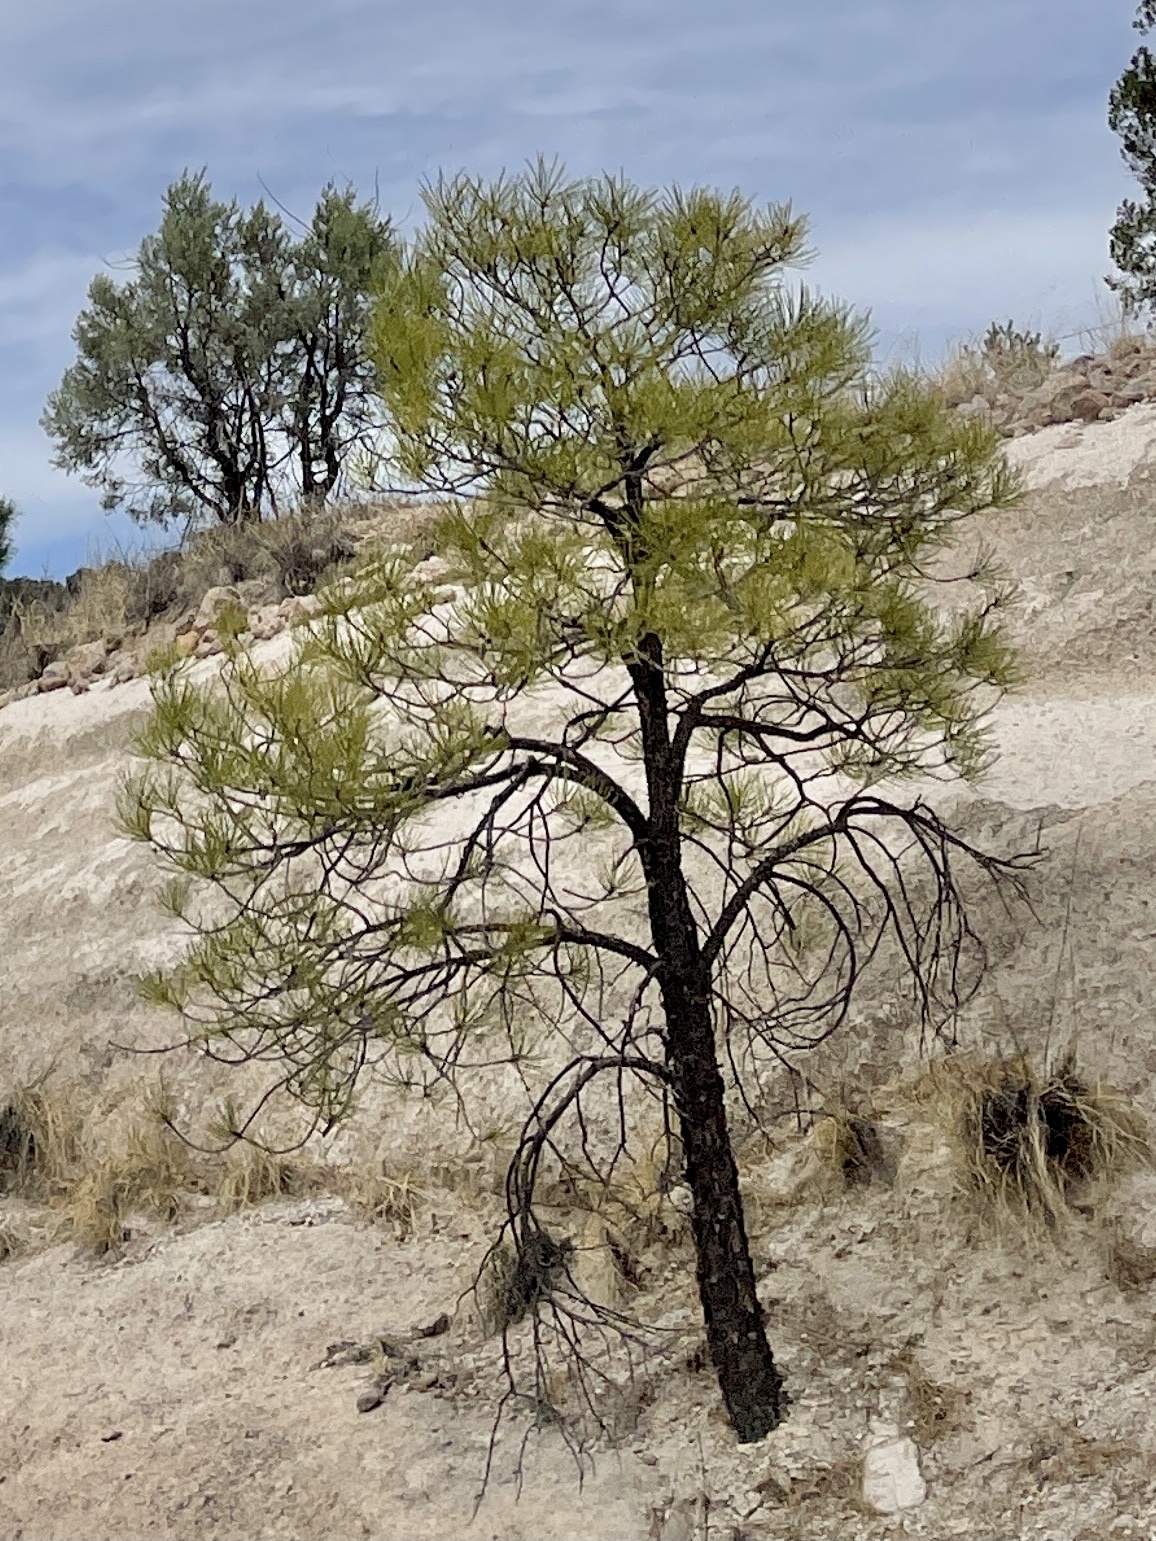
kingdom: Plantae
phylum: Tracheophyta
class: Pinopsida
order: Pinales
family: Pinaceae
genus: Pinus
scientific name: Pinus ponderosa
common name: Western yellow-pine
